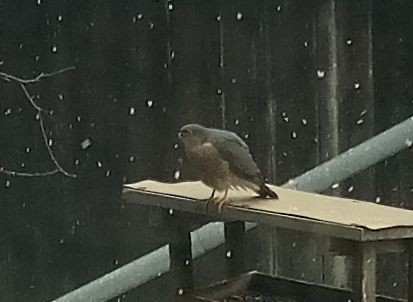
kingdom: Animalia
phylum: Chordata
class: Aves
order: Accipitriformes
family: Accipitridae
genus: Accipiter
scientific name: Accipiter nisus
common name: Eurasian sparrowhawk
